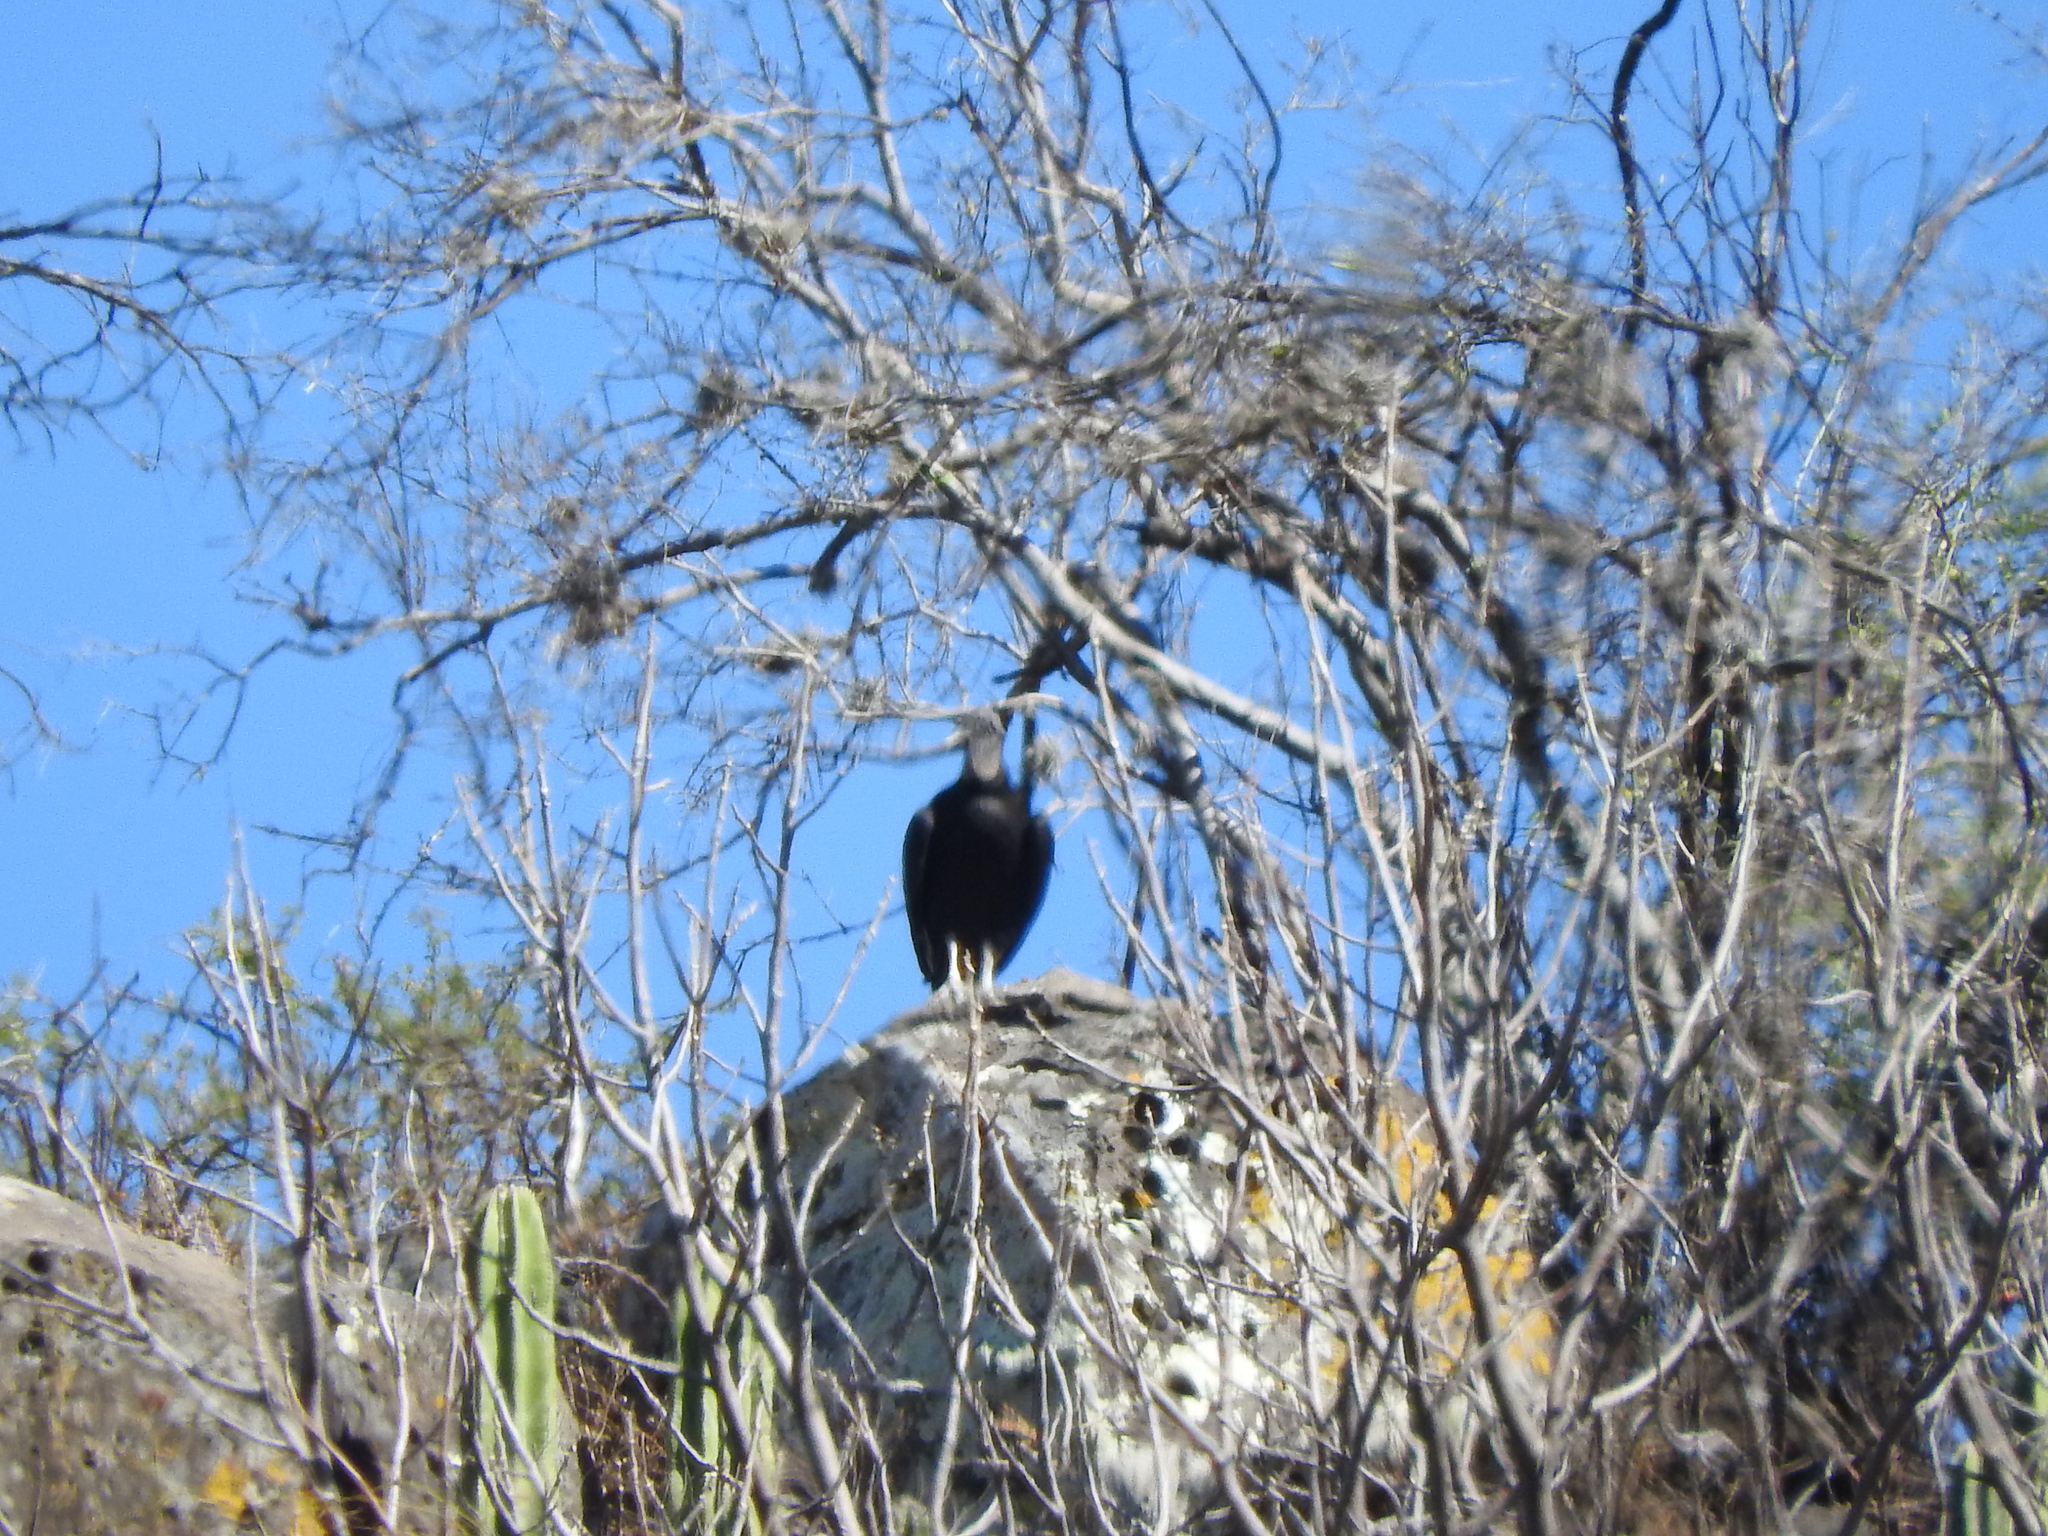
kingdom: Animalia
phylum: Chordata
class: Aves
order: Accipitriformes
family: Cathartidae
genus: Coragyps
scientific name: Coragyps atratus
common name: Black vulture
